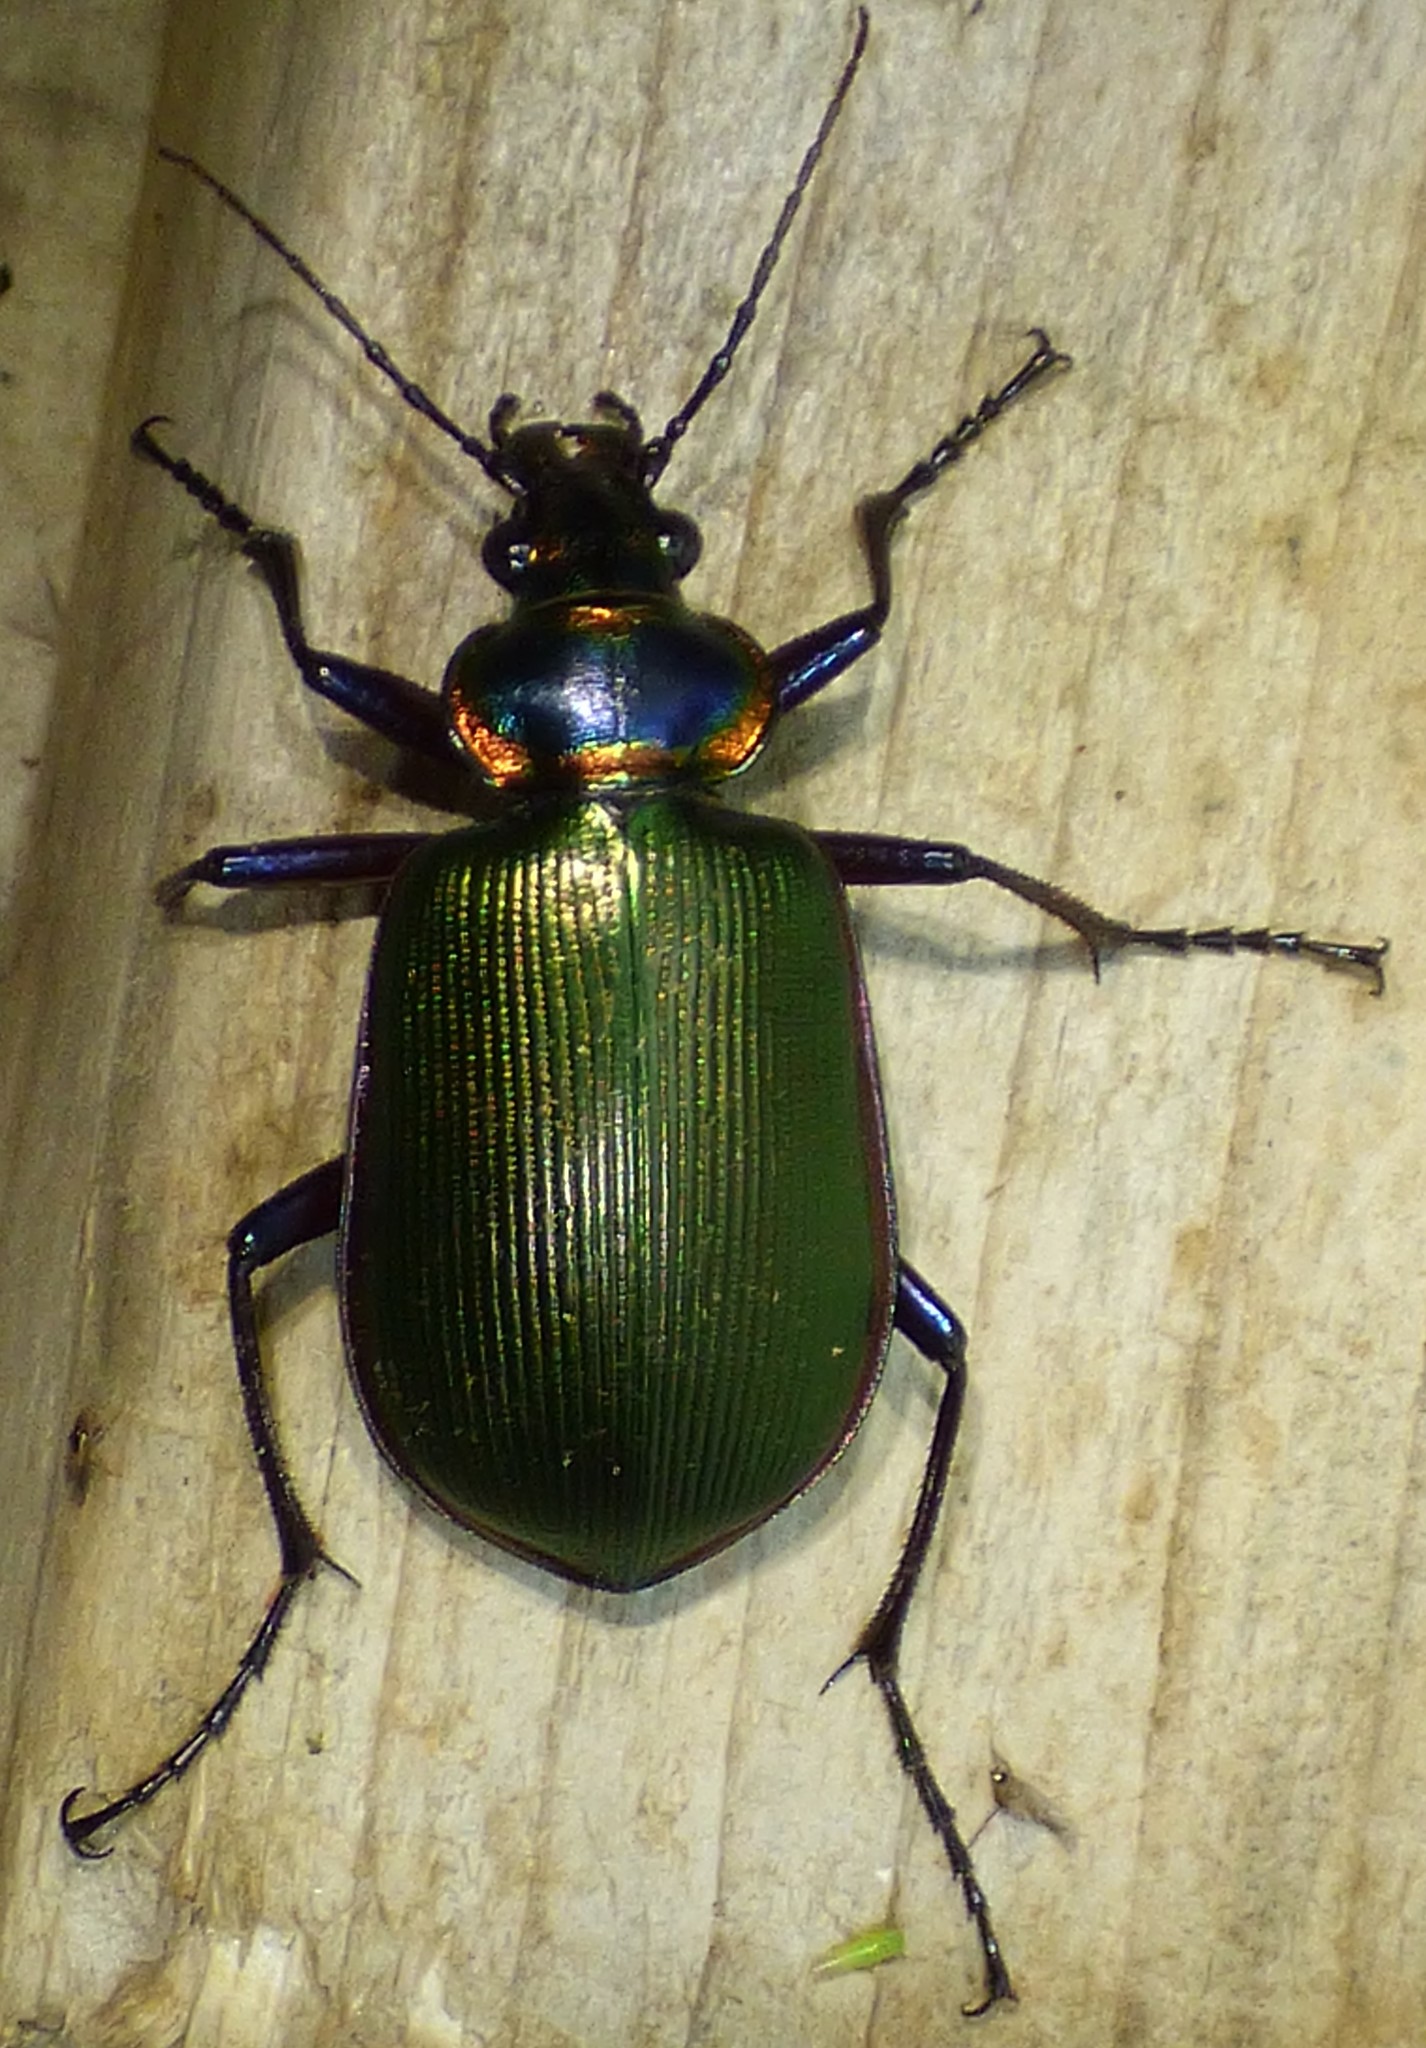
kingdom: Animalia
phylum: Arthropoda
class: Insecta
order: Coleoptera
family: Carabidae
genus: Calosoma
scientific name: Calosoma scrutator
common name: Fiery searcher beetle
